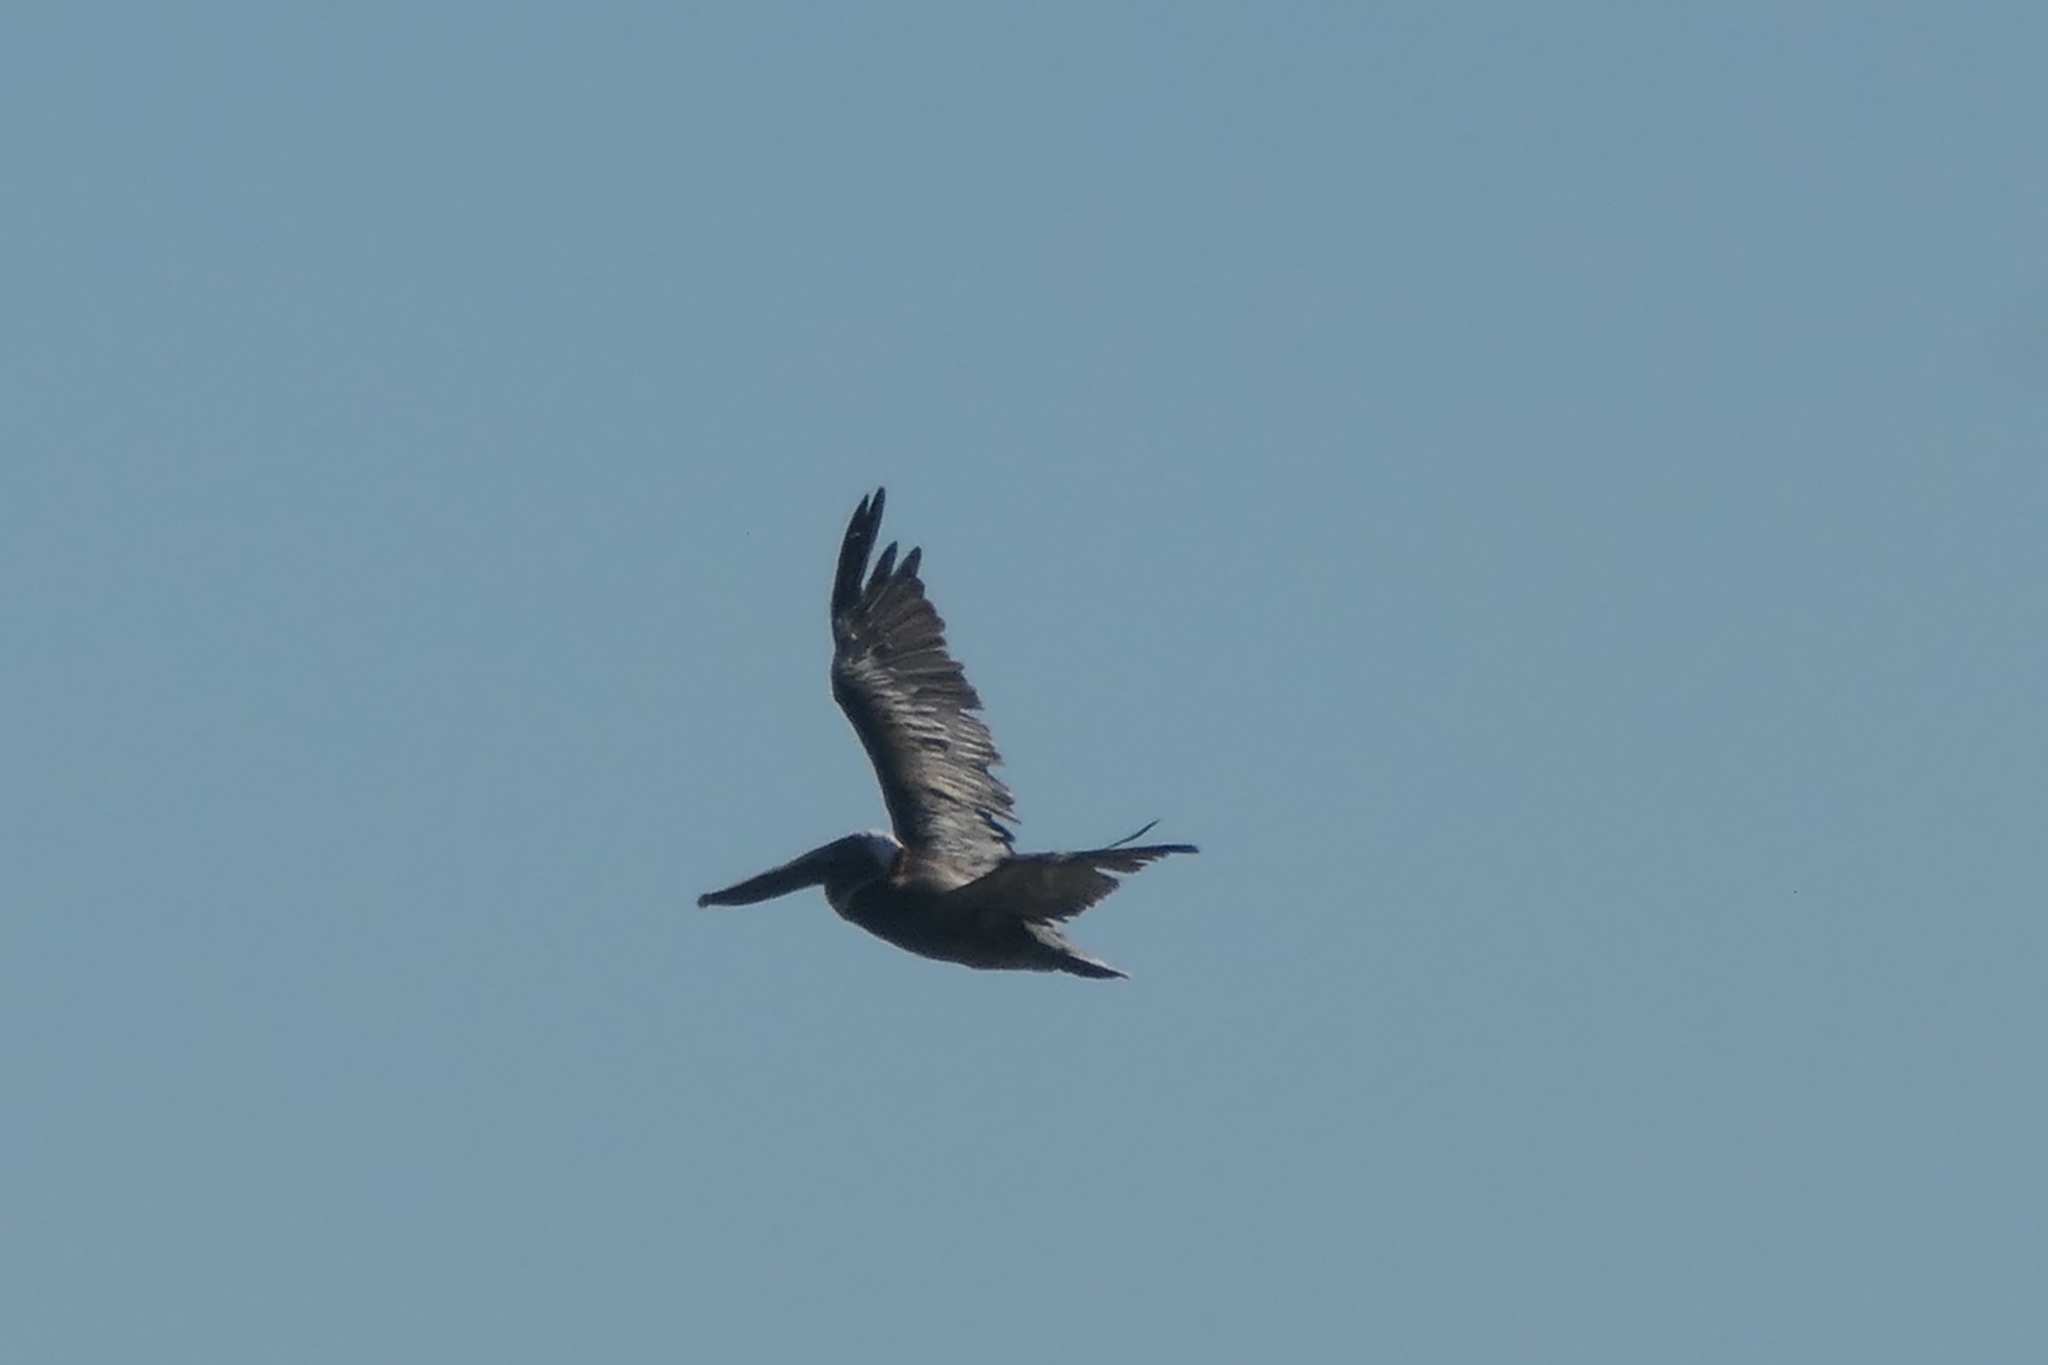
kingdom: Animalia
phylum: Chordata
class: Aves
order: Pelecaniformes
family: Pelecanidae
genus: Pelecanus
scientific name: Pelecanus occidentalis
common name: Brown pelican
